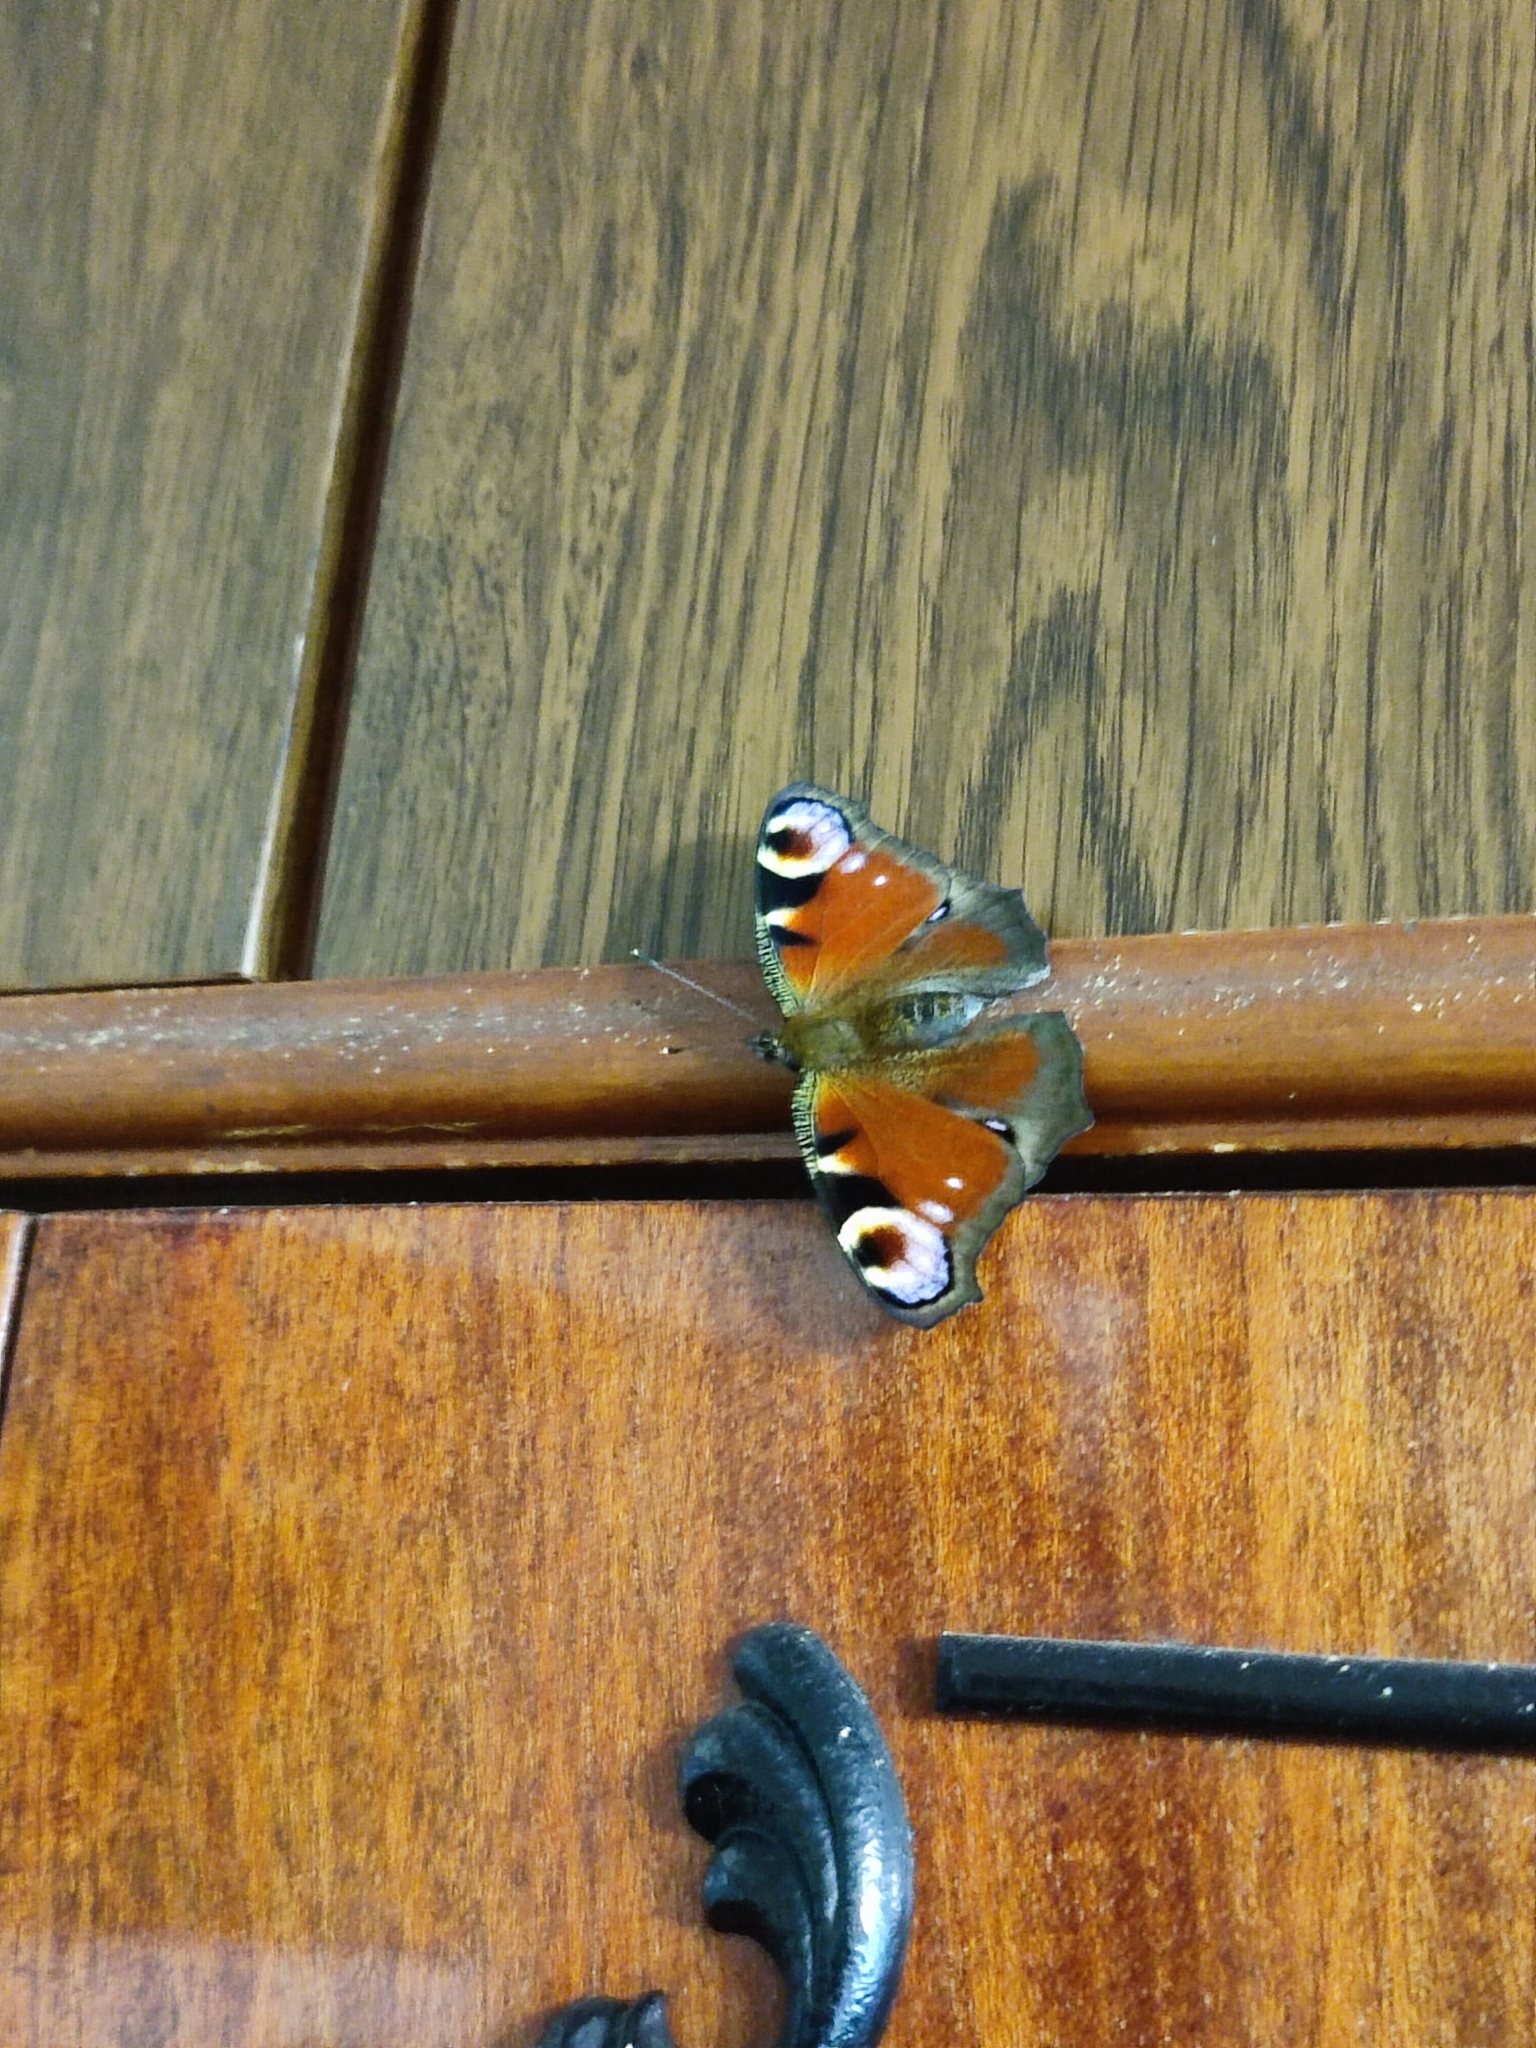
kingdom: Animalia
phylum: Arthropoda
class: Insecta
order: Lepidoptera
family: Nymphalidae
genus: Aglais
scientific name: Aglais io
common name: Peacock
